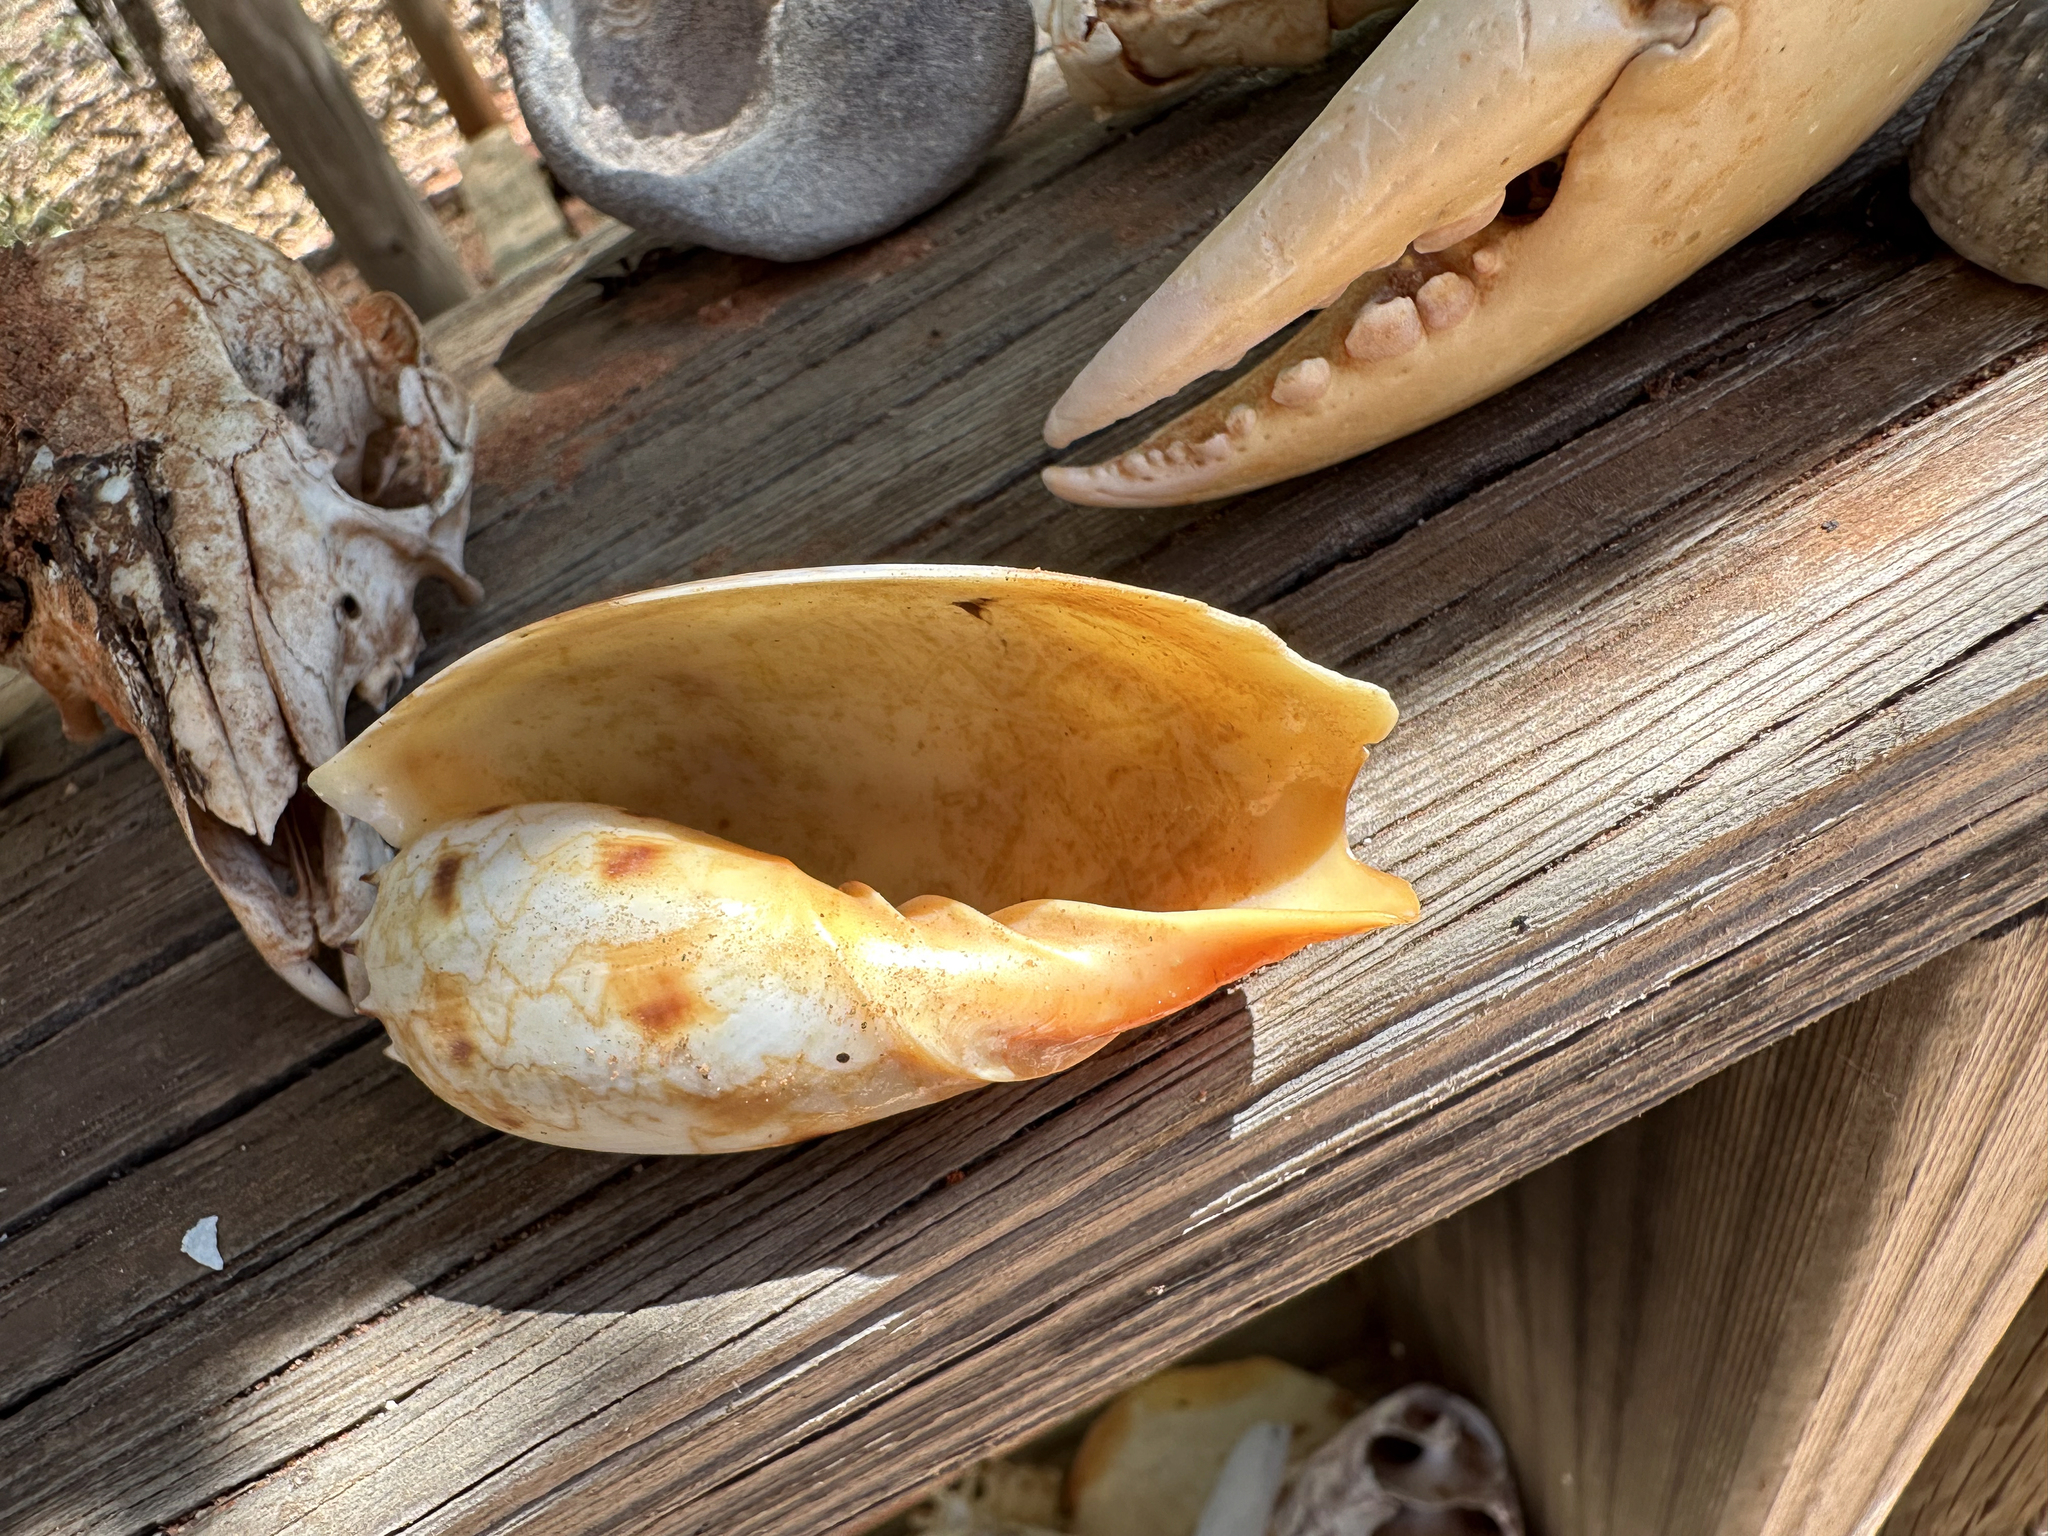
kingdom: Animalia
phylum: Mollusca
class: Gastropoda
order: Neogastropoda
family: Volutidae
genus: Melo
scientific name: Melo amphora
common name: Diadem volute
